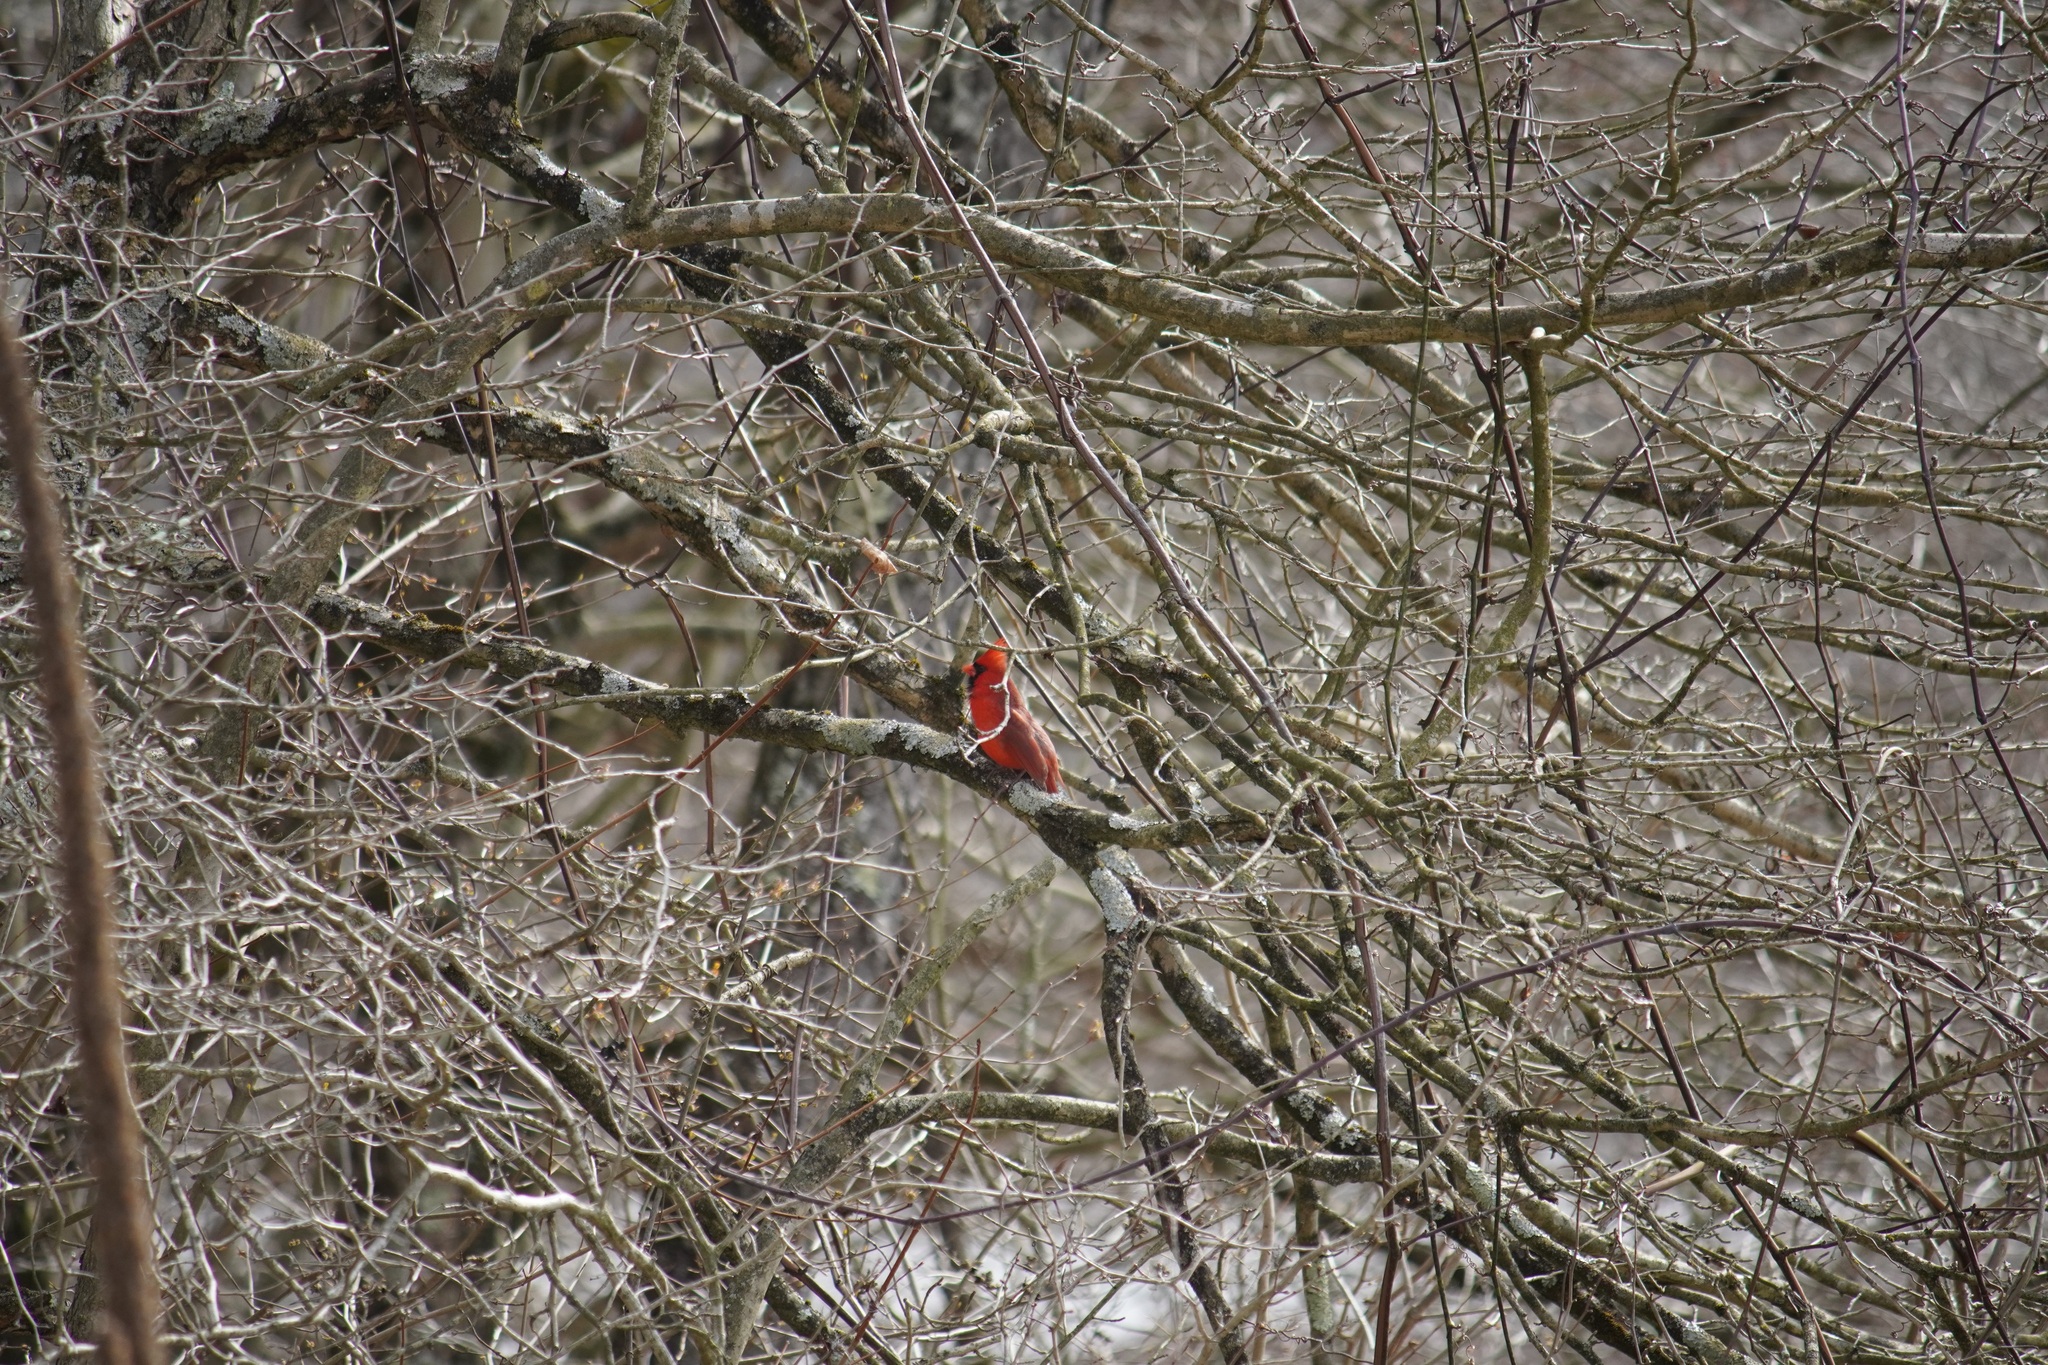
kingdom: Animalia
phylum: Chordata
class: Aves
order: Passeriformes
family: Cardinalidae
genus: Cardinalis
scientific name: Cardinalis cardinalis
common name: Northern cardinal
